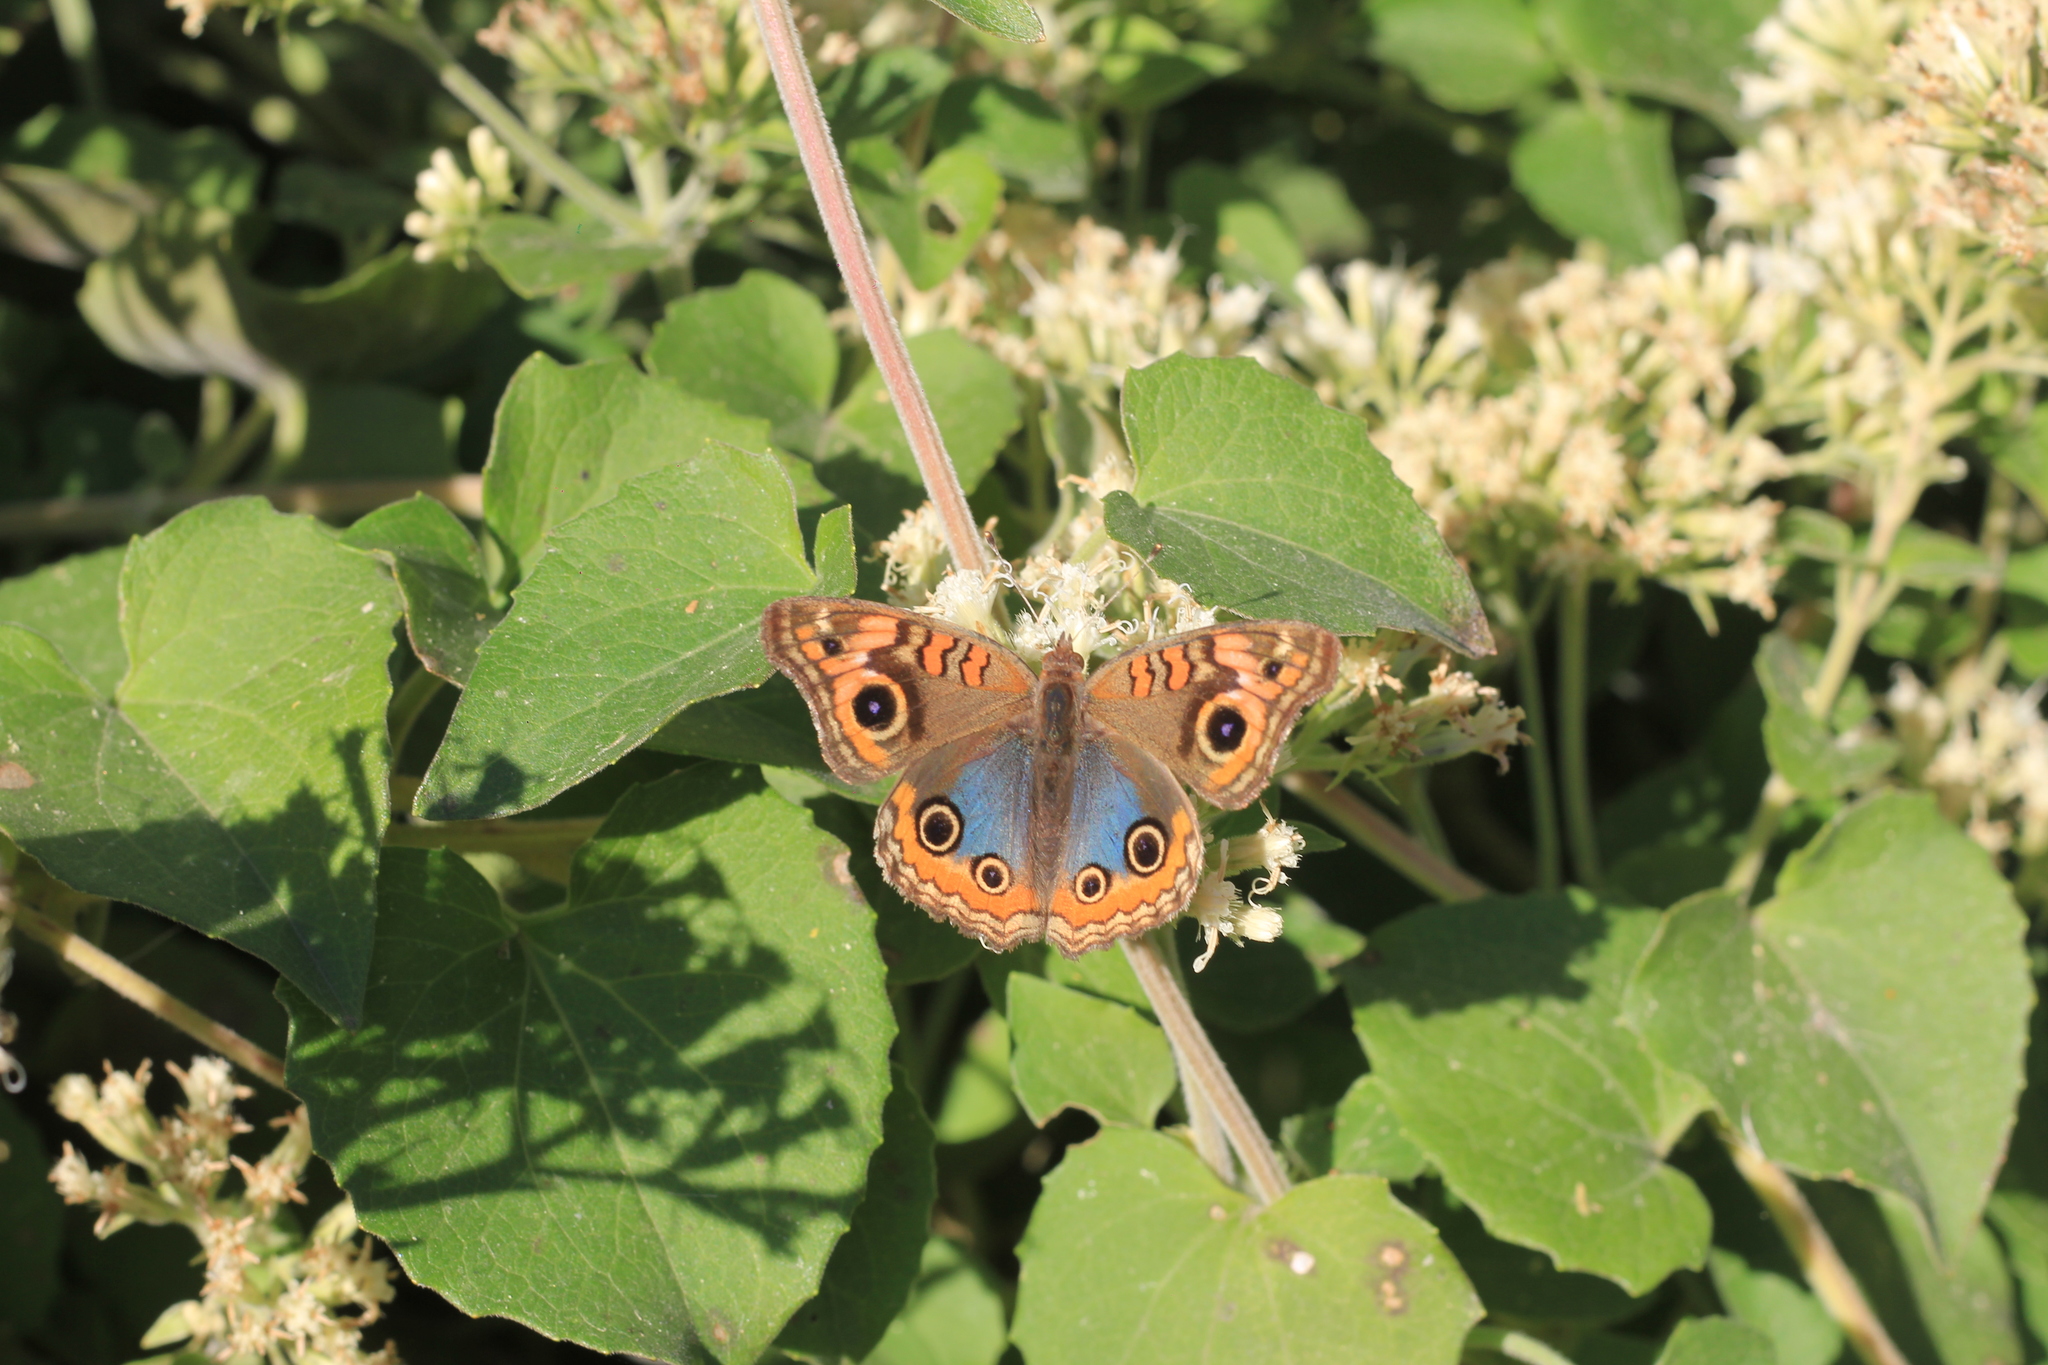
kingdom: Animalia
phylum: Arthropoda
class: Insecta
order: Lepidoptera
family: Nymphalidae
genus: Junonia
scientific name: Junonia lavinia
